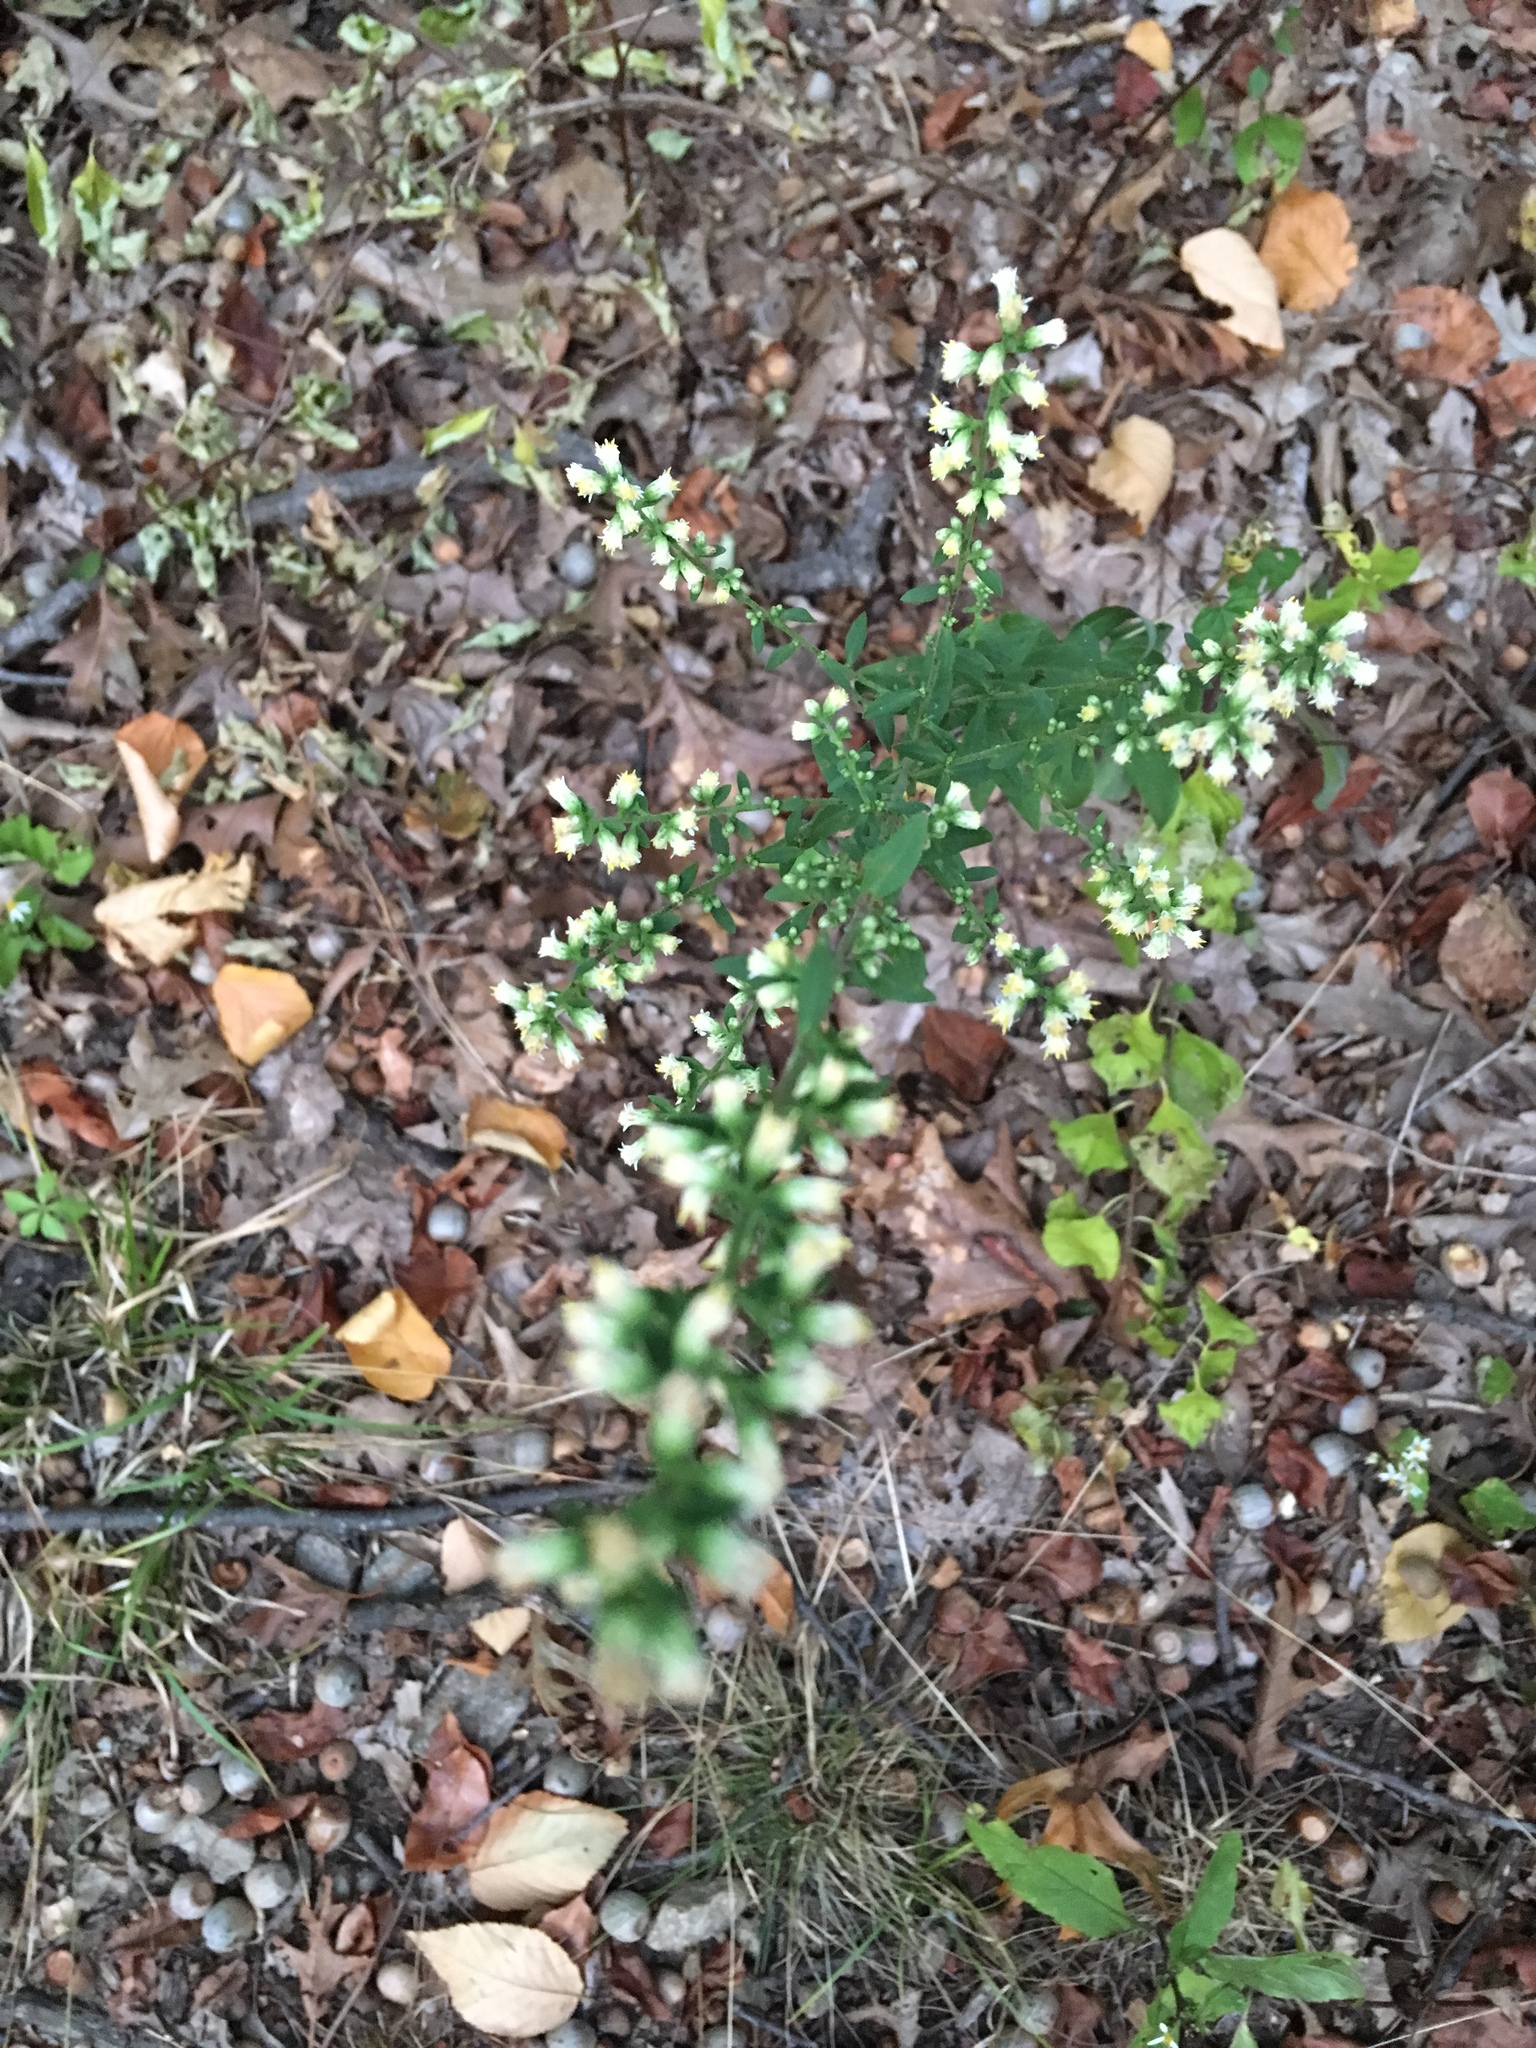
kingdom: Plantae
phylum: Tracheophyta
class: Magnoliopsida
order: Asterales
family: Asteraceae
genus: Solidago
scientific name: Solidago bicolor
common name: Silverrod
